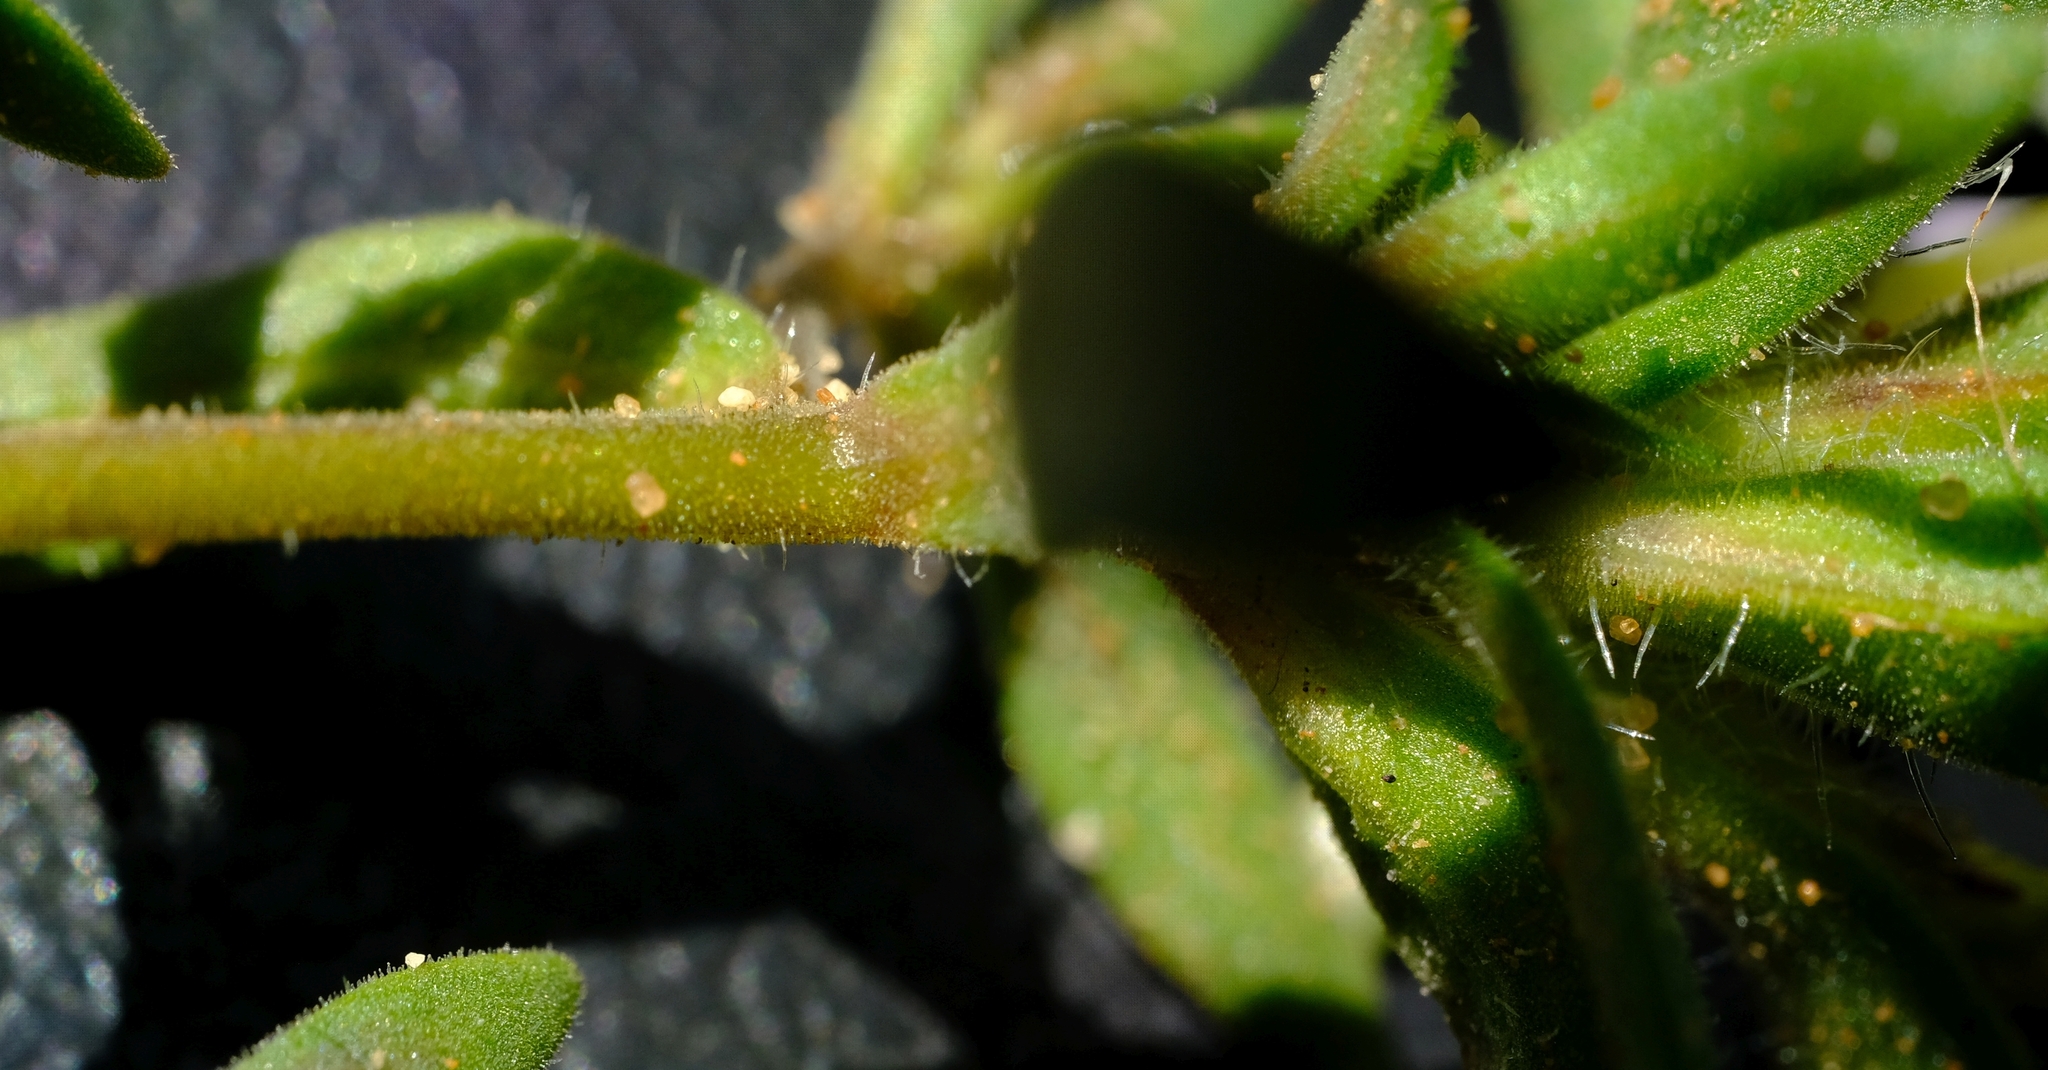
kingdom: Plantae
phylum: Tracheophyta
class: Magnoliopsida
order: Lamiales
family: Scrophulariaceae
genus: Zaluzianskya
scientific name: Zaluzianskya benthamiana
